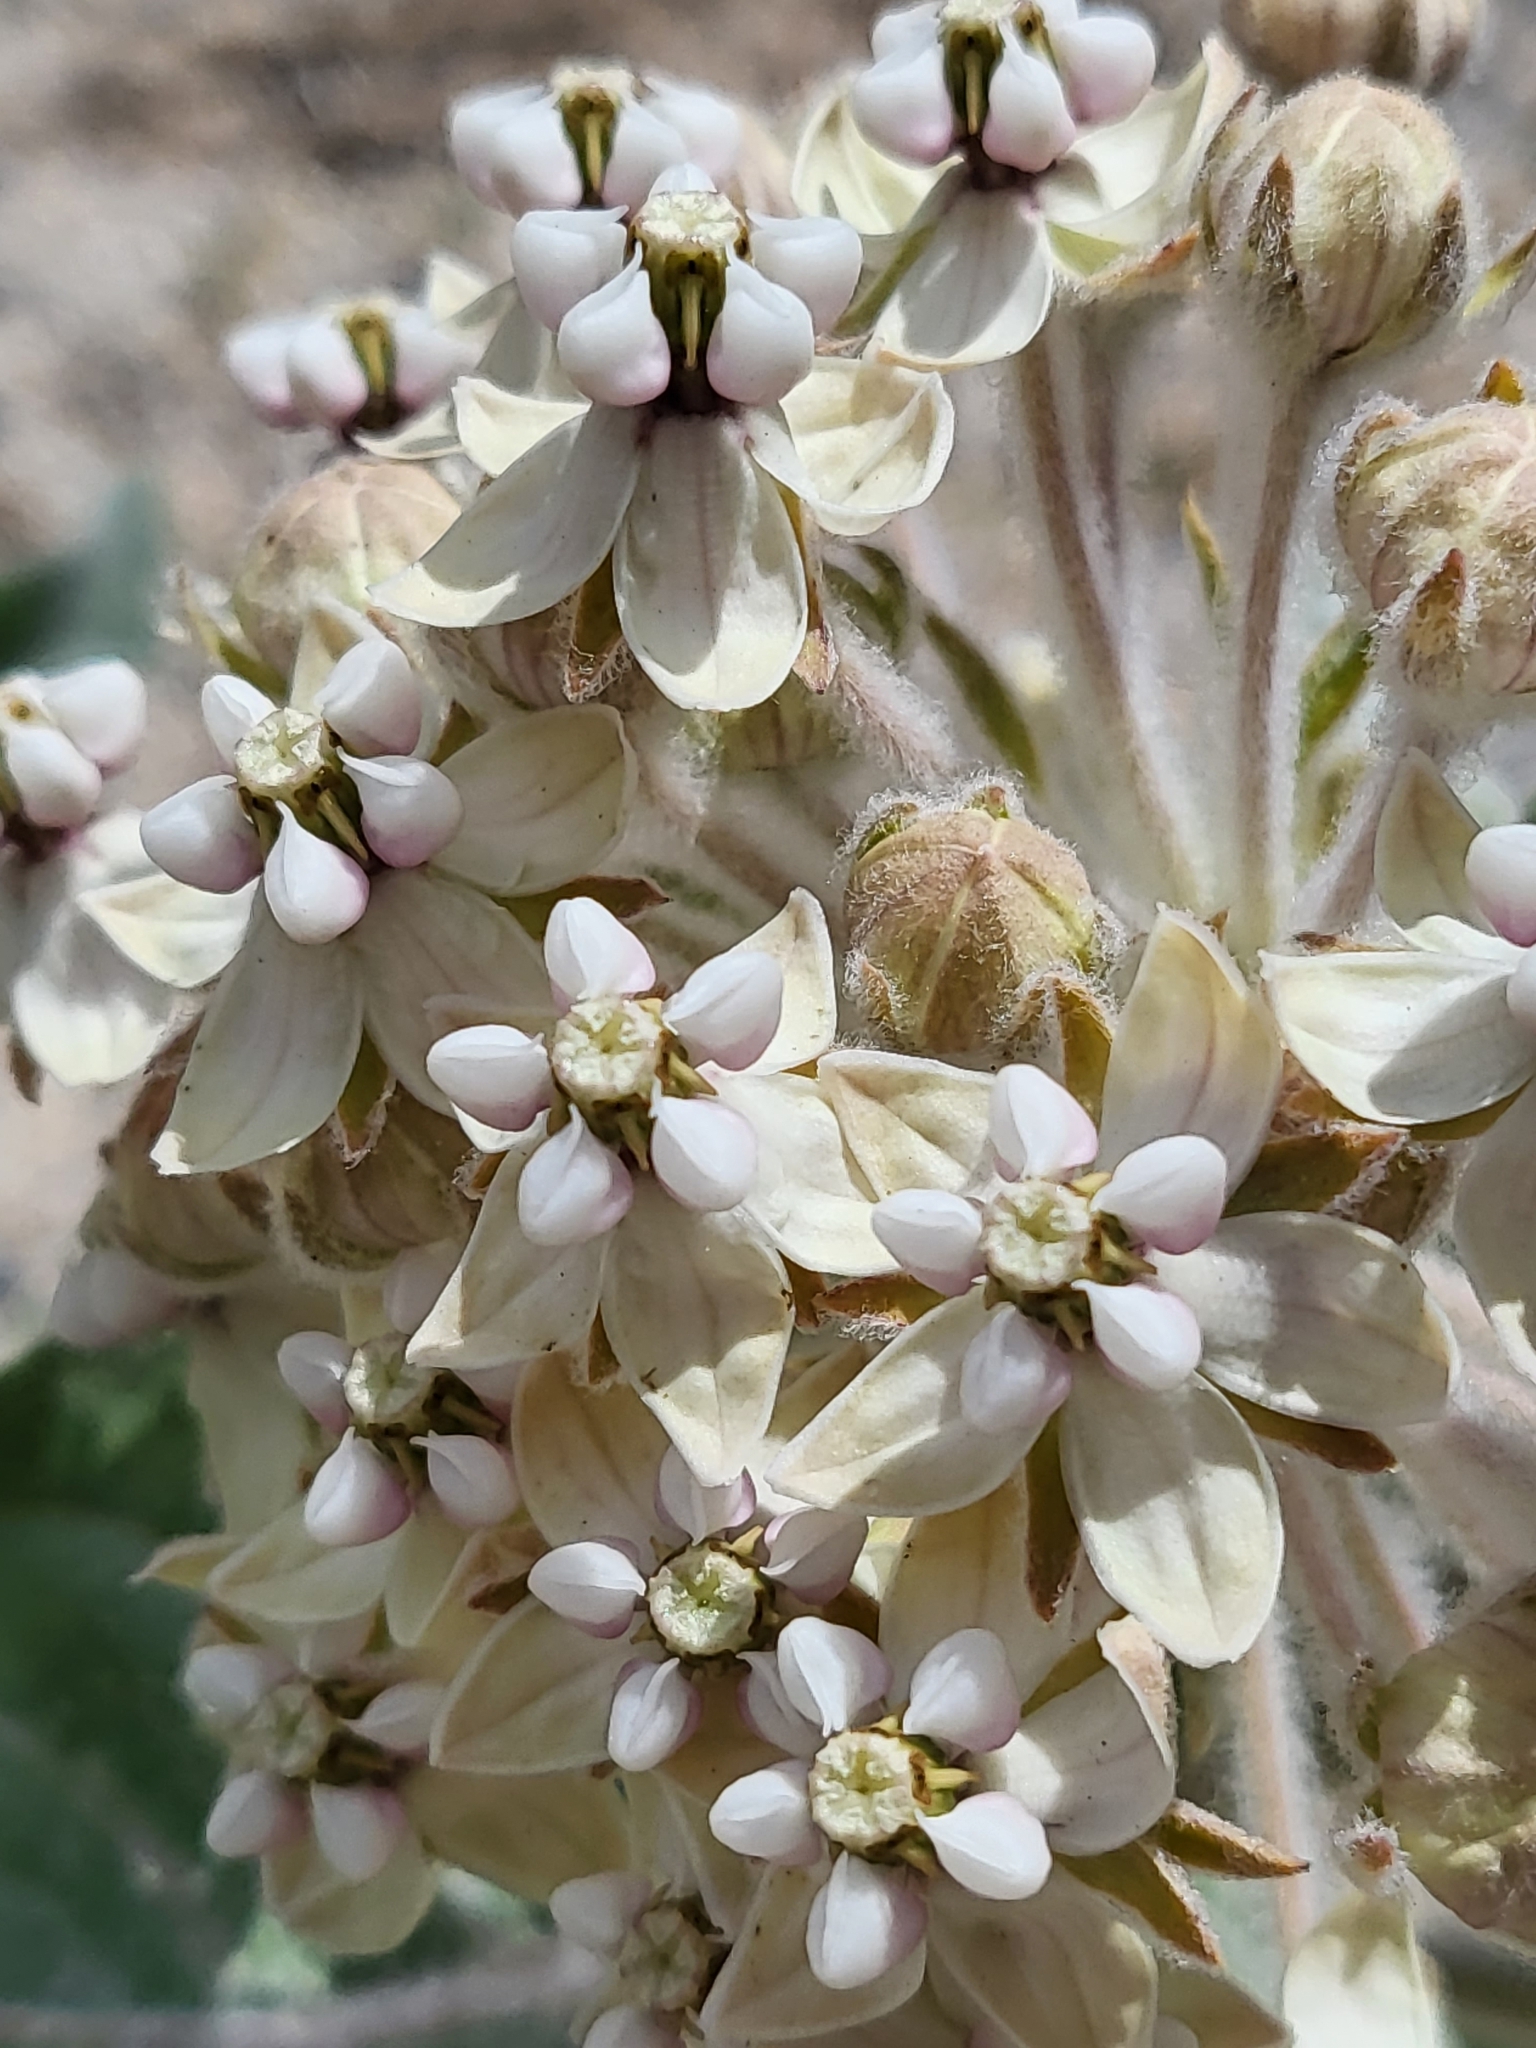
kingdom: Plantae
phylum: Tracheophyta
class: Magnoliopsida
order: Gentianales
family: Apocynaceae
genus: Asclepias
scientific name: Asclepias eriocarpa
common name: Indian milkweed
